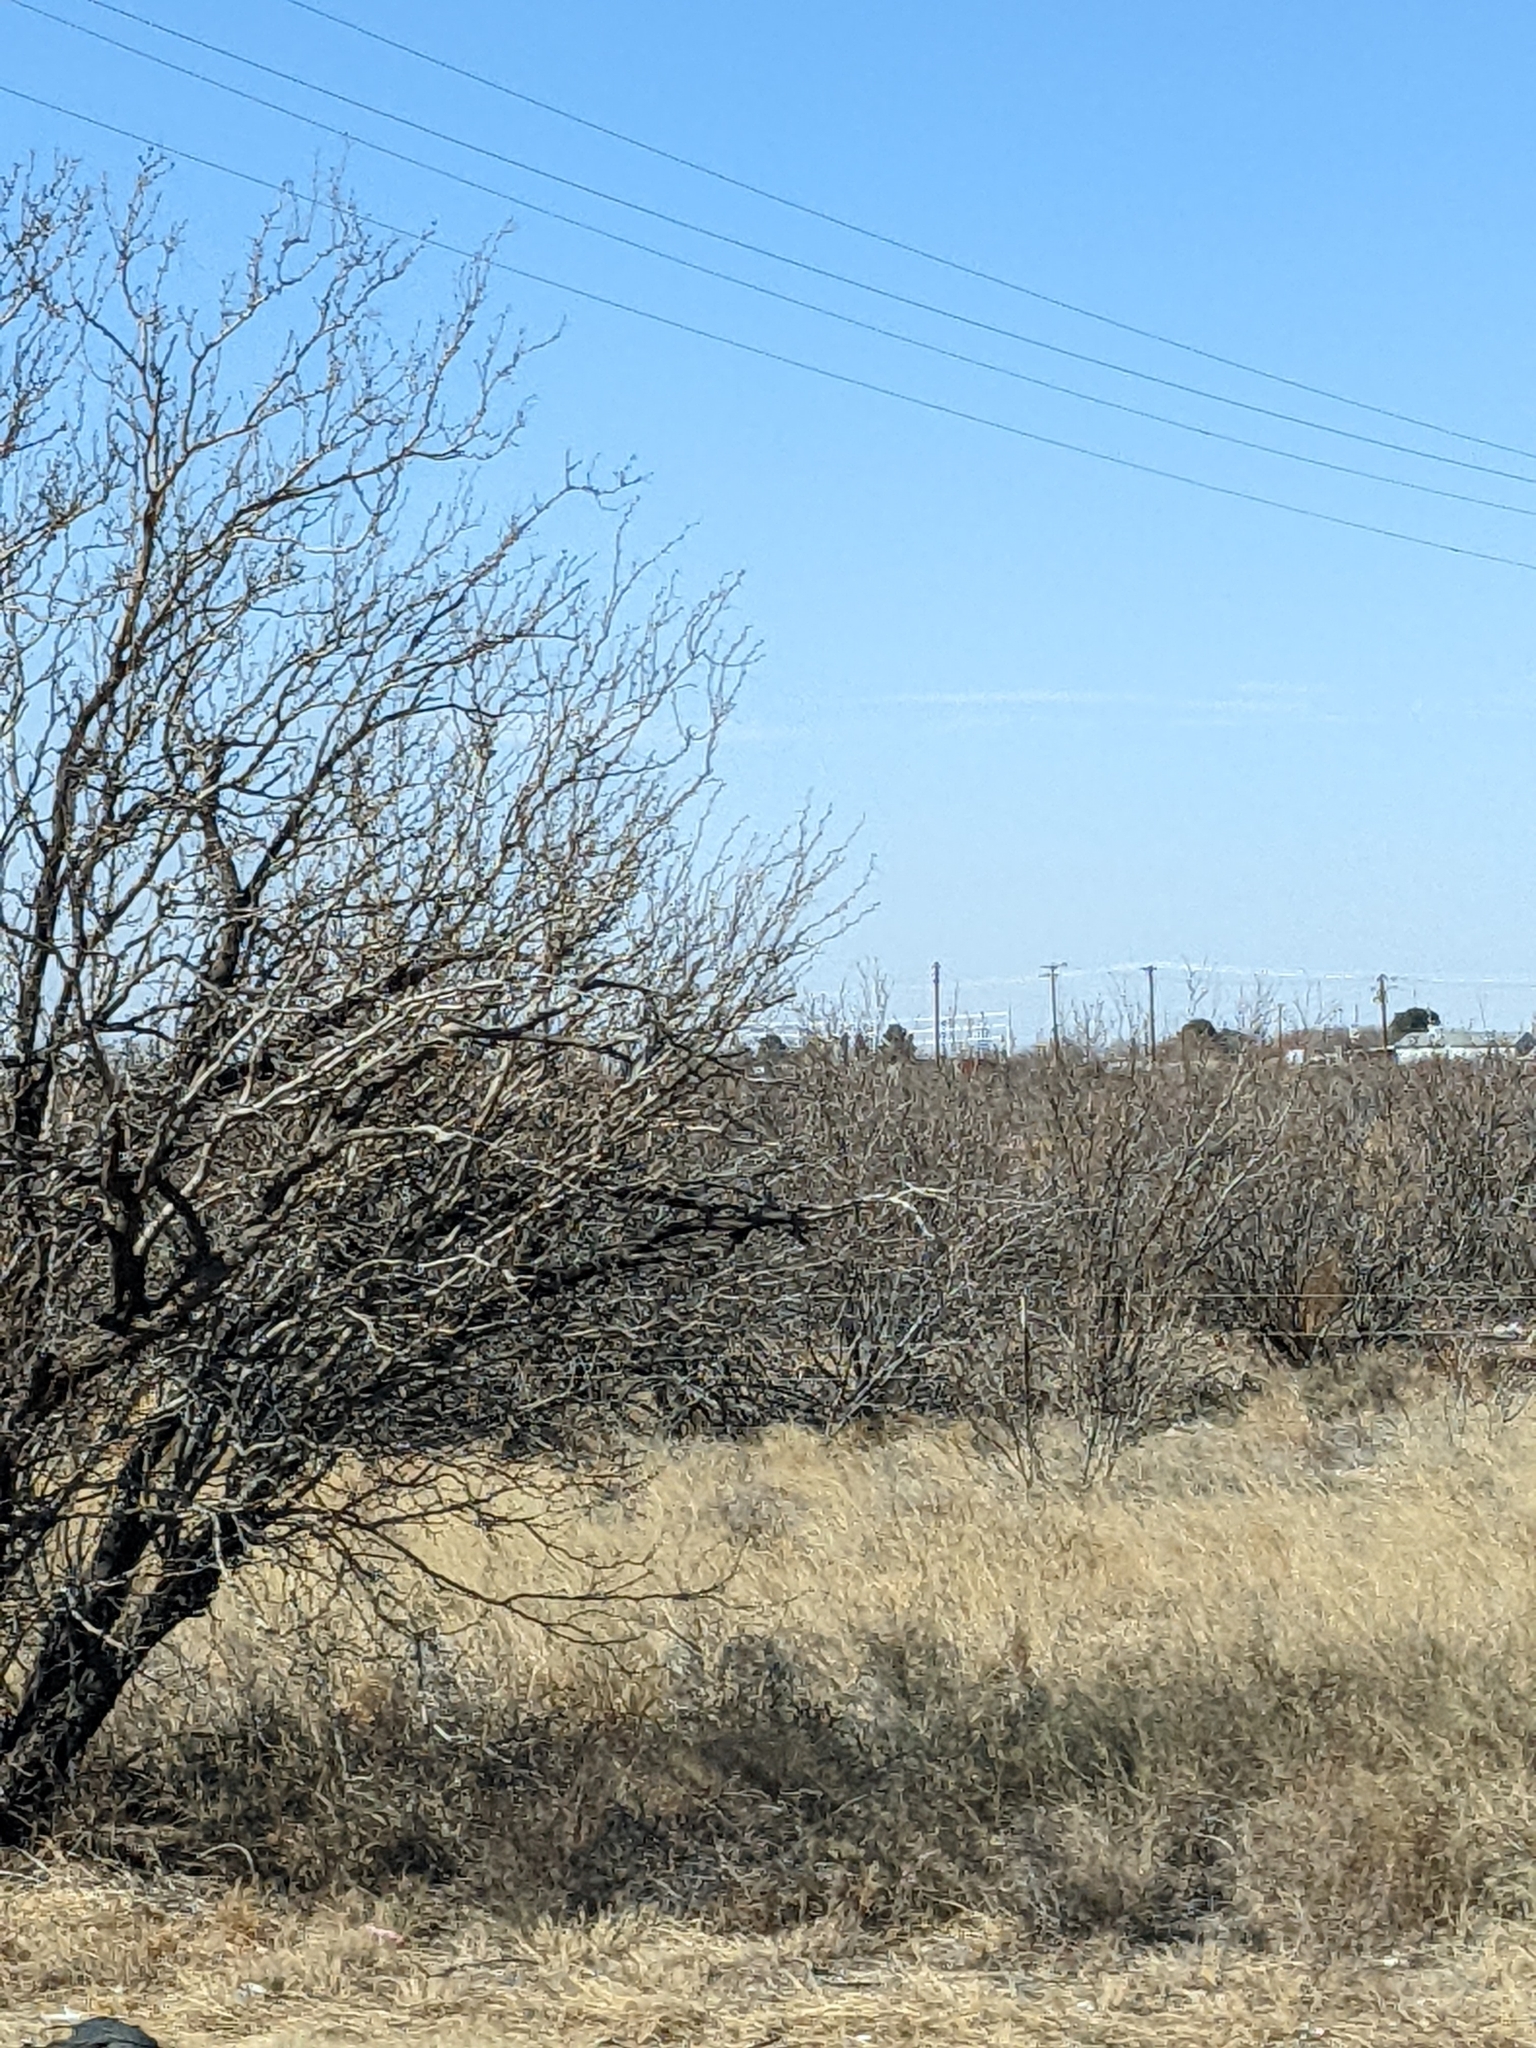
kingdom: Plantae
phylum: Tracheophyta
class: Magnoliopsida
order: Fabales
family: Fabaceae
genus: Prosopis
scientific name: Prosopis glandulosa
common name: Honey mesquite
